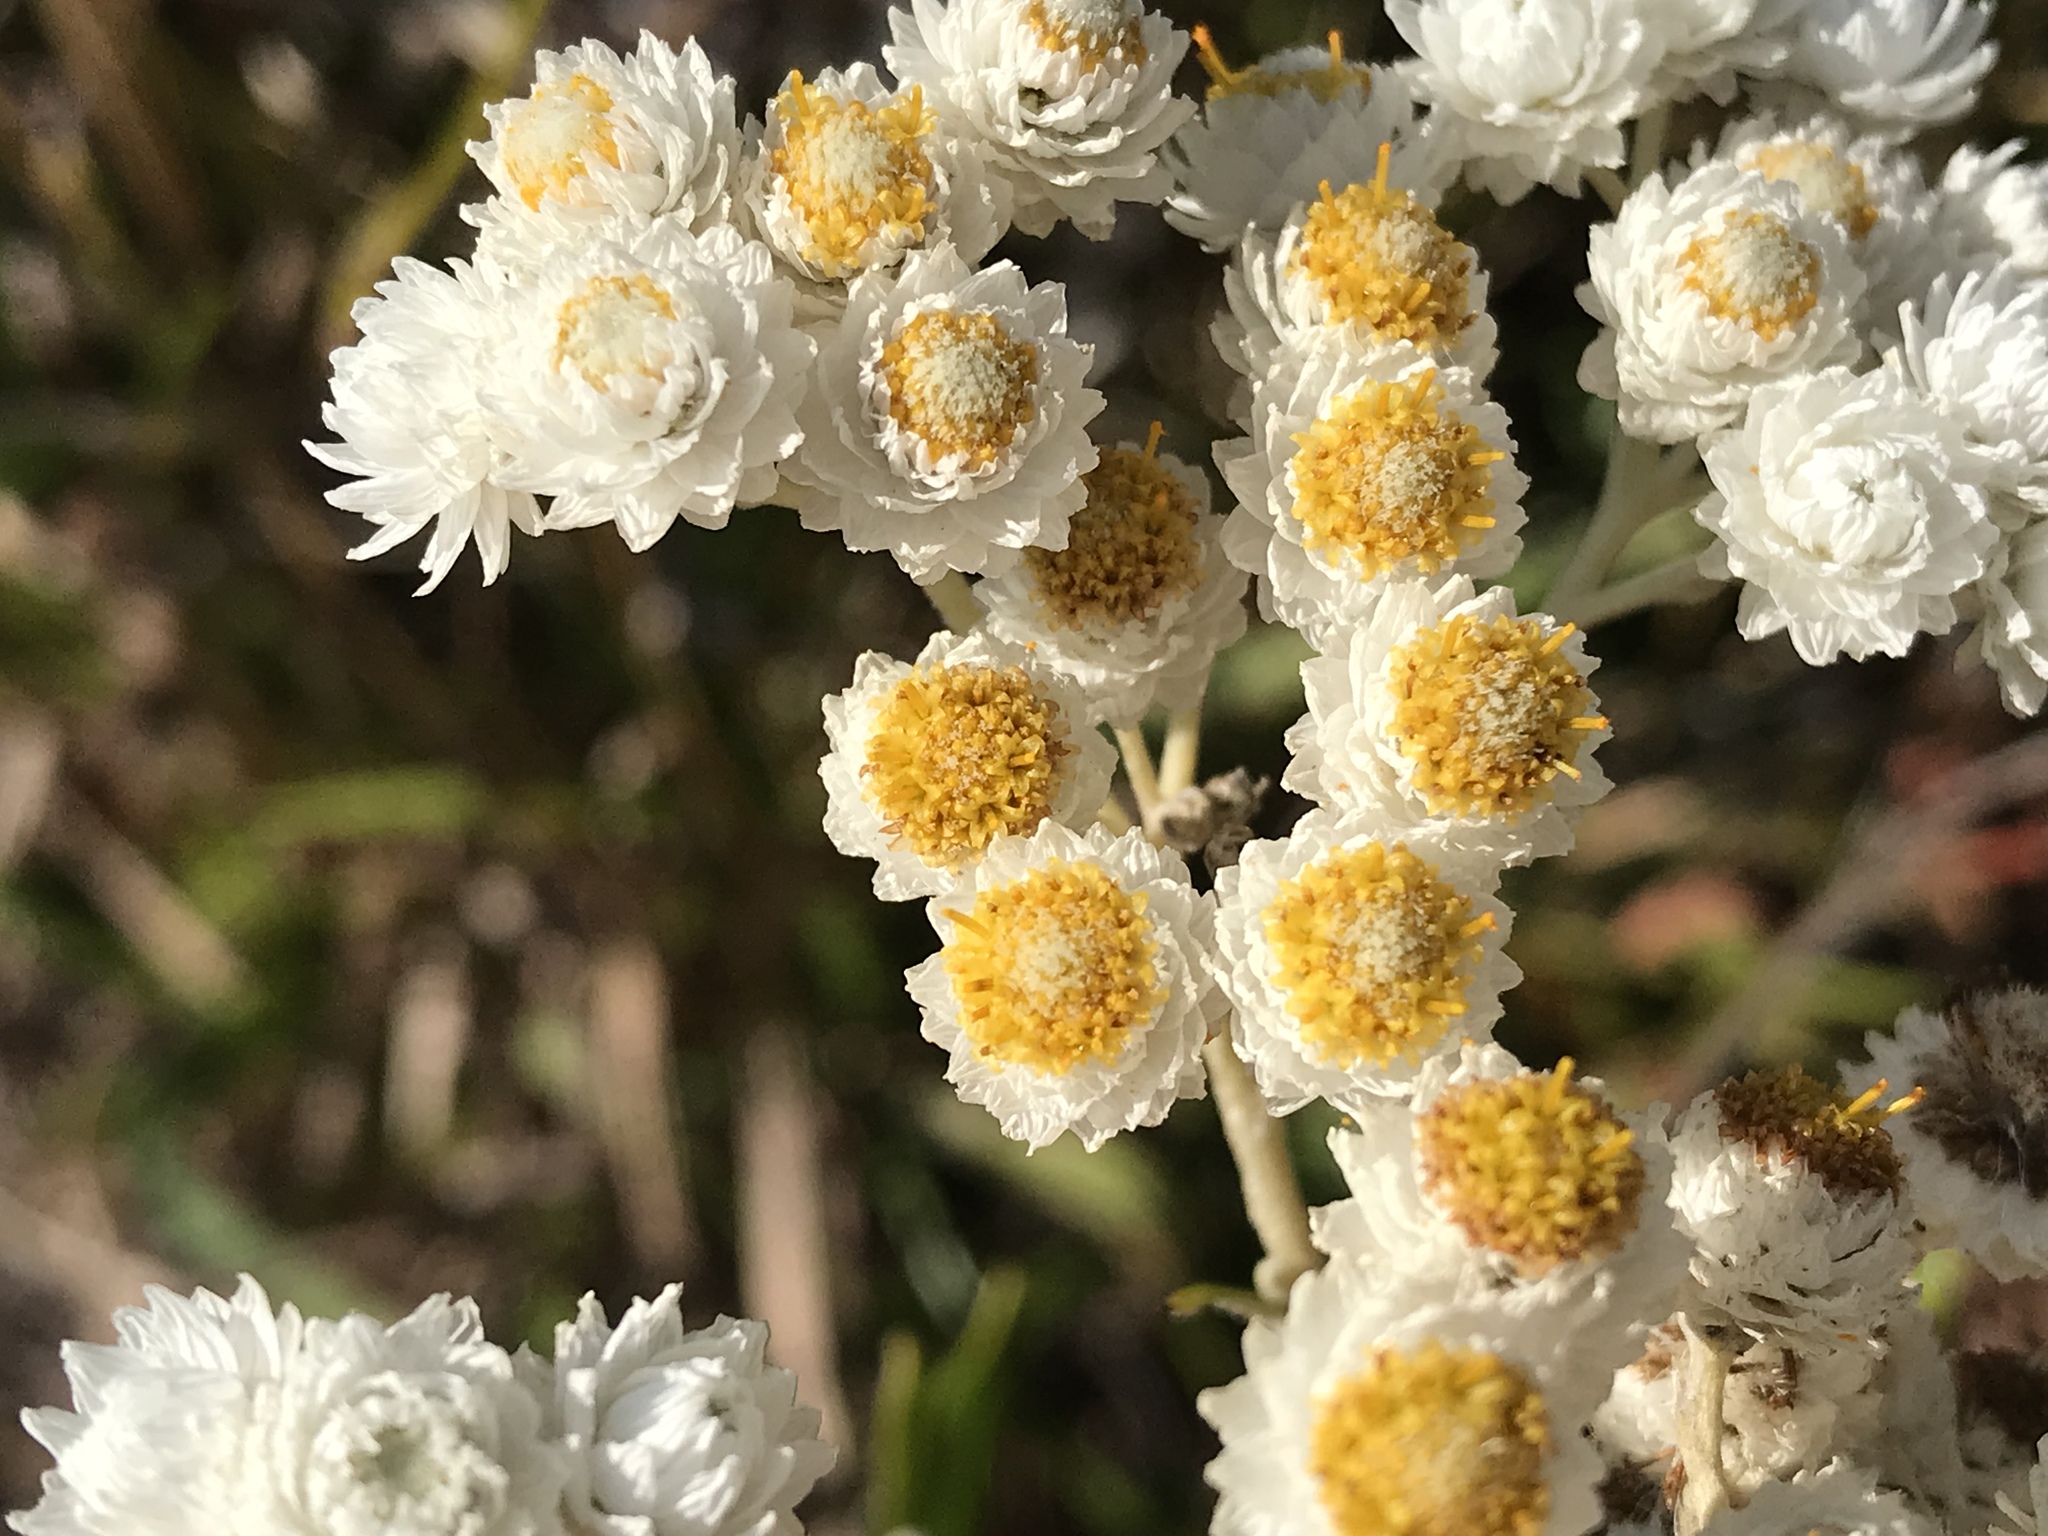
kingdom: Plantae
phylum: Tracheophyta
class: Magnoliopsida
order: Asterales
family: Asteraceae
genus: Anaphalis
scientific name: Anaphalis margaritacea
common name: Pearly everlasting
